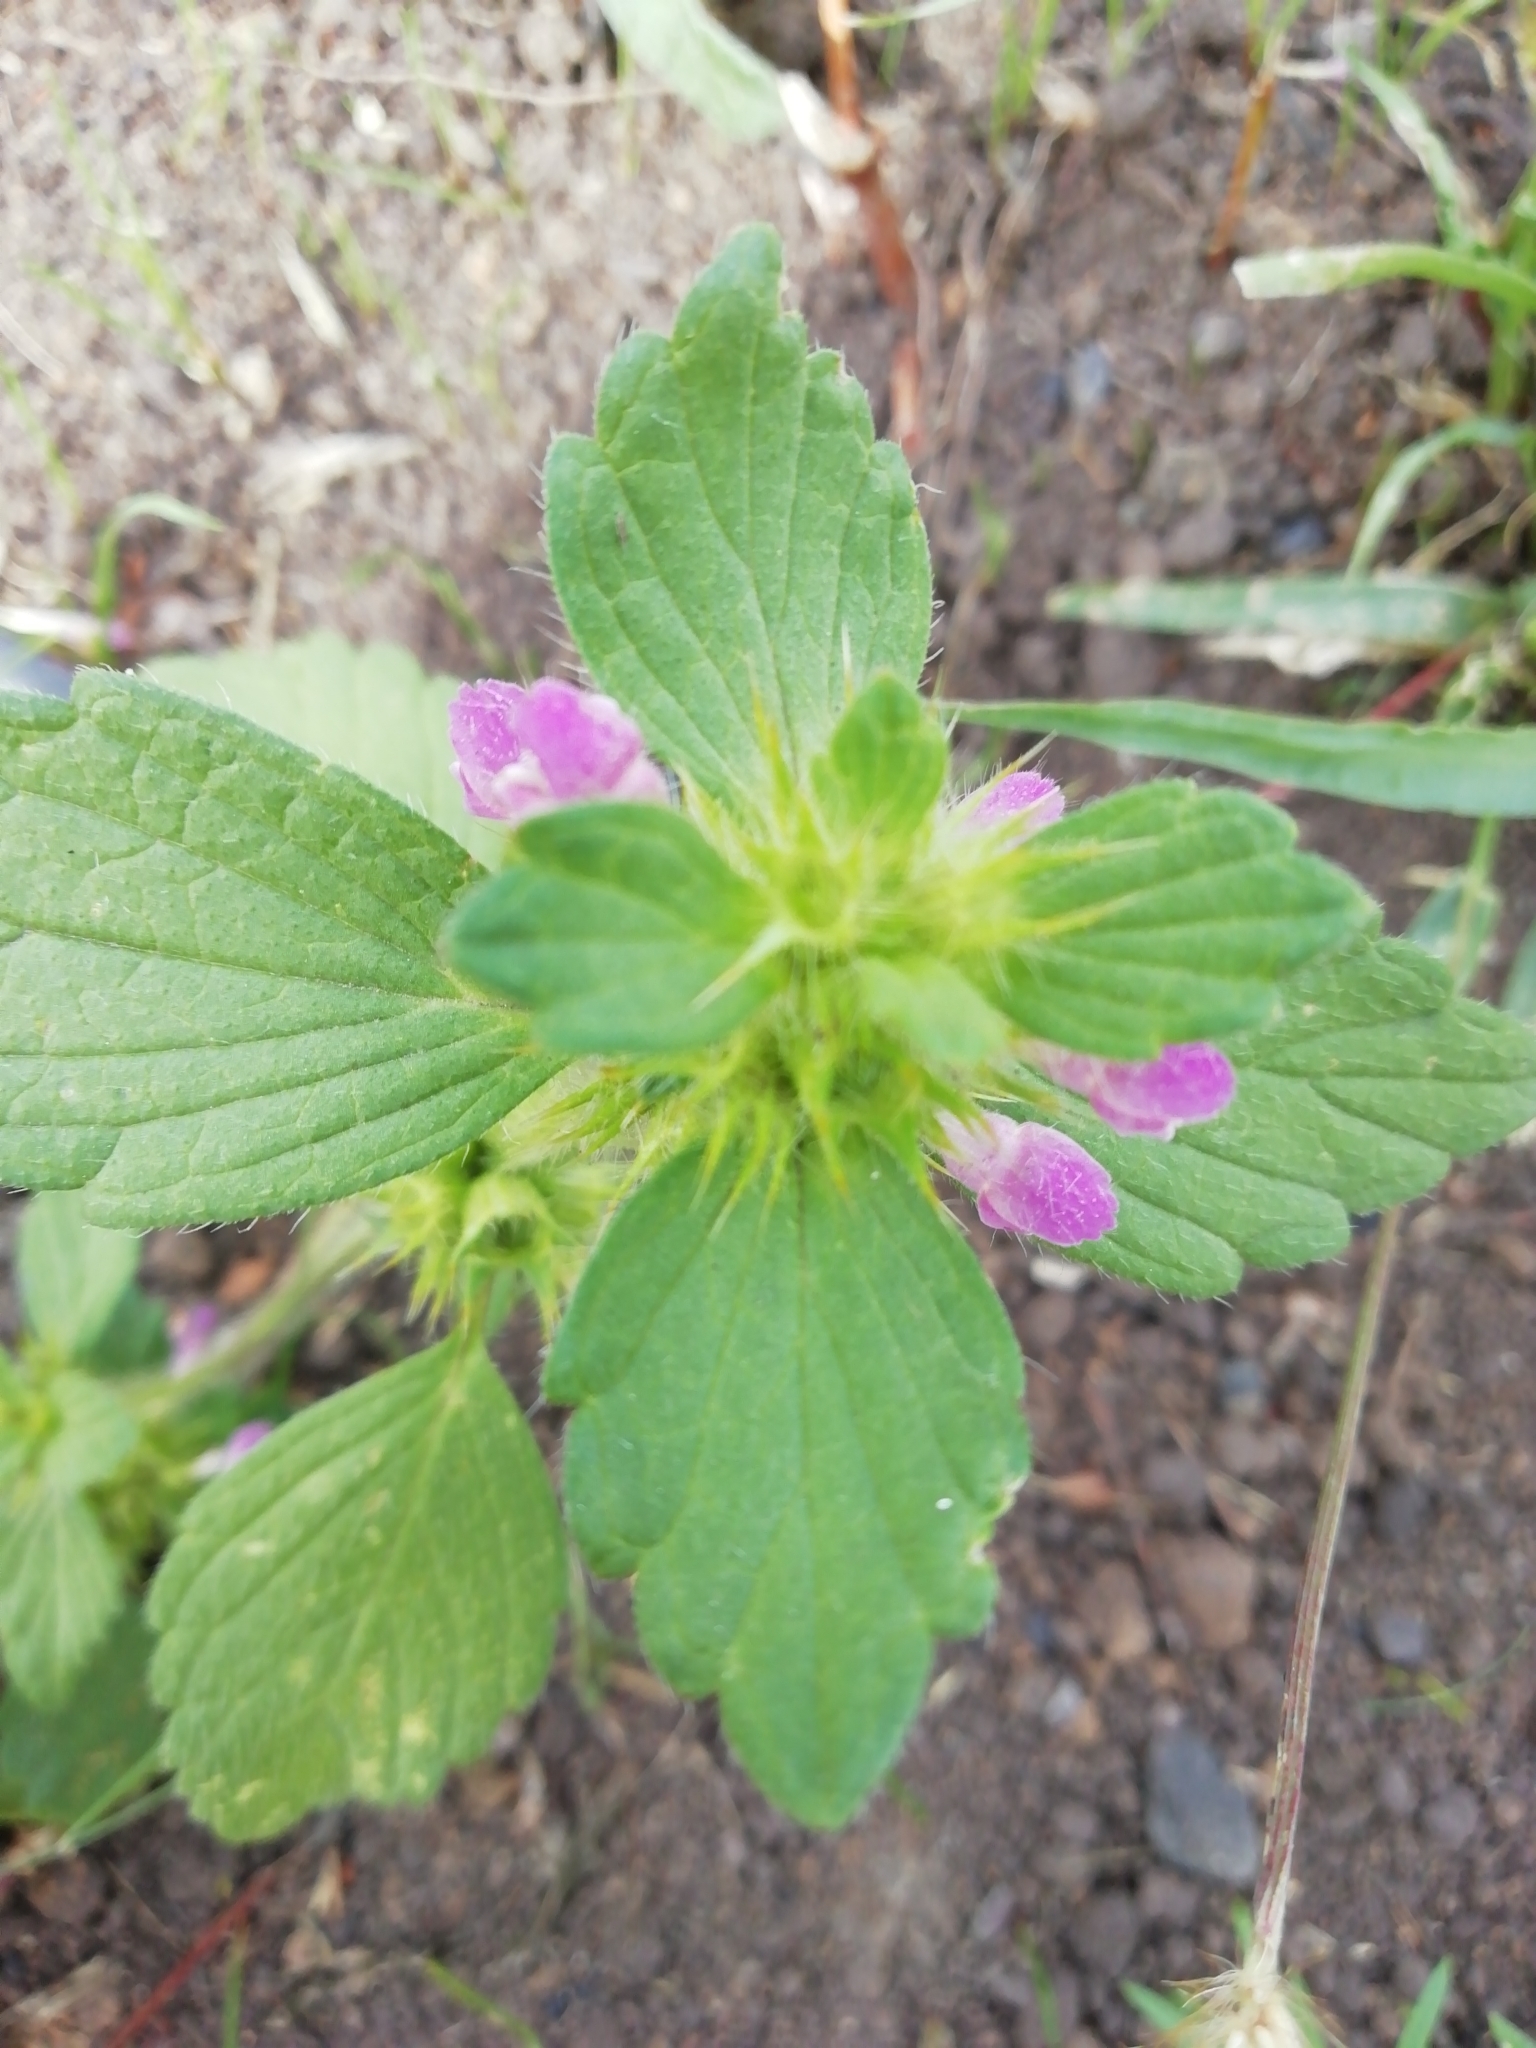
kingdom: Plantae
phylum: Tracheophyta
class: Magnoliopsida
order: Lamiales
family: Lamiaceae
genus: Galeopsis
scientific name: Galeopsis bifida
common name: Bifid hemp-nettle
